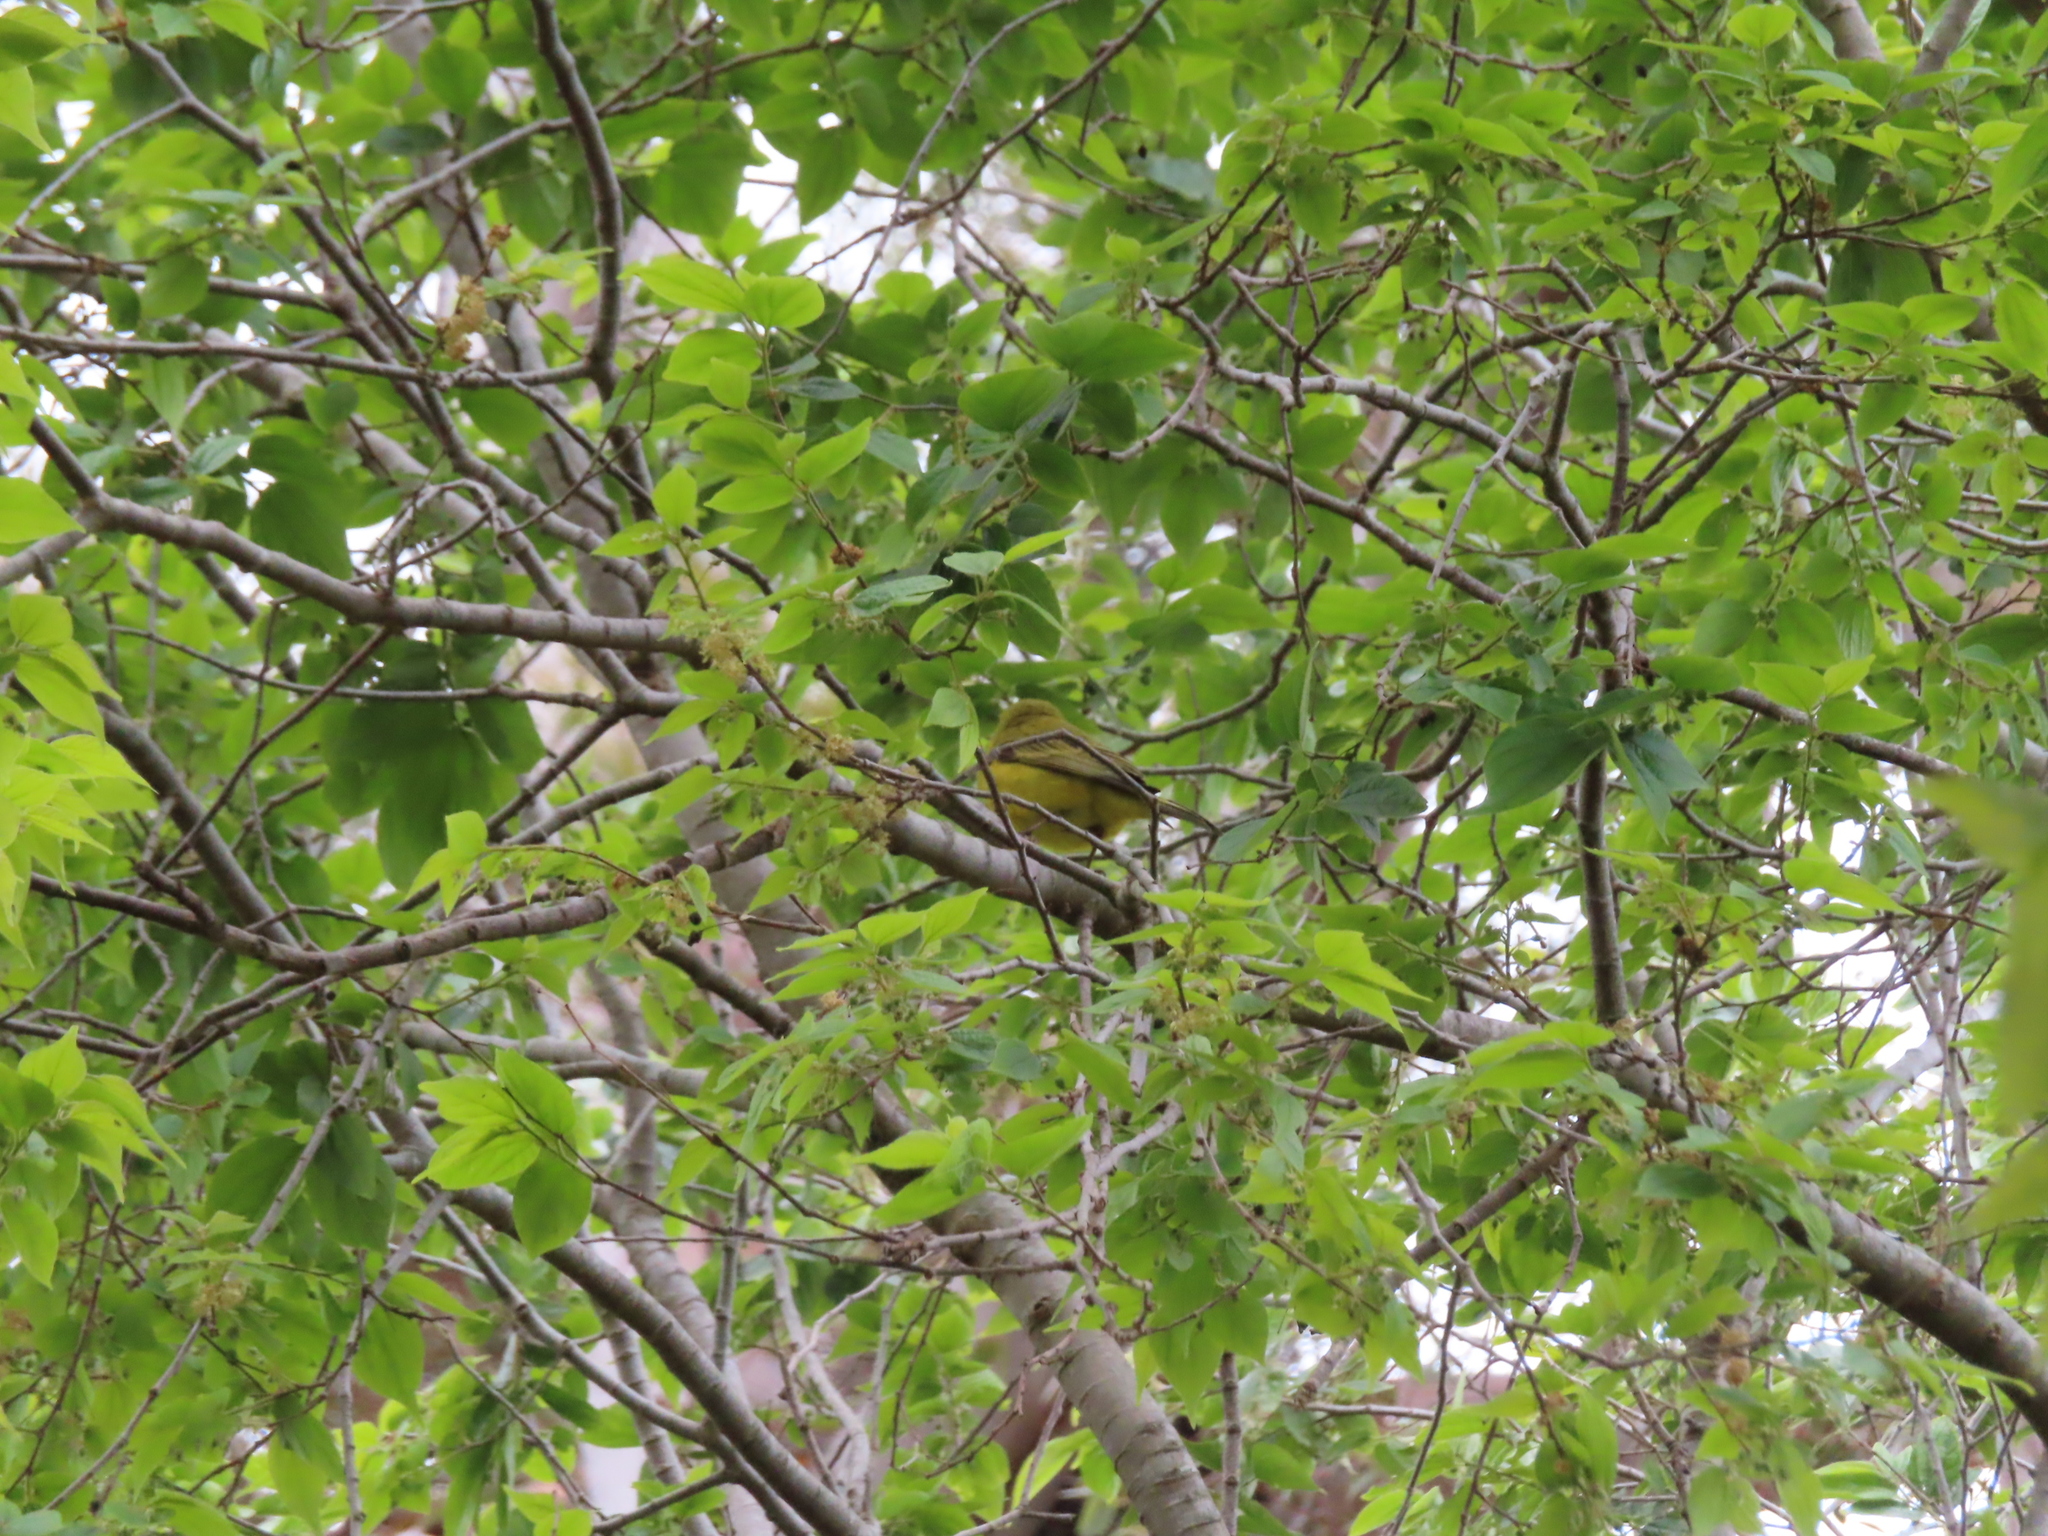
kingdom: Animalia
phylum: Chordata
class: Aves
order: Passeriformes
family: Zosteropidae
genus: Zosterops
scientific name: Zosterops virens
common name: Cape white-eye
